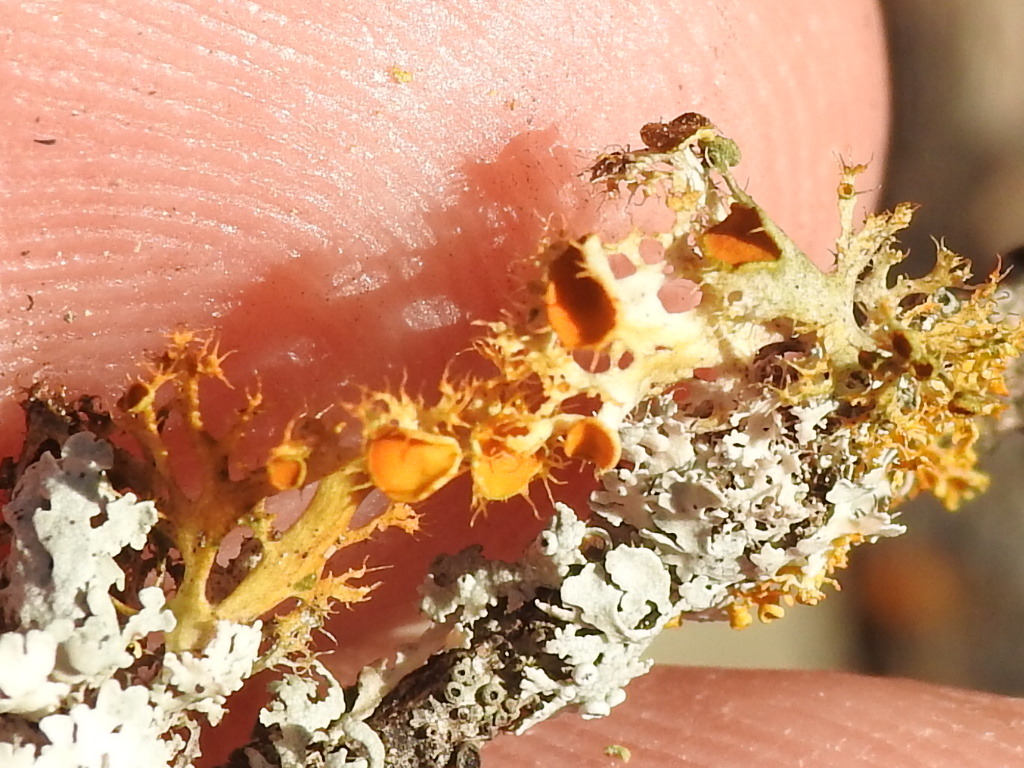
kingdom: Fungi
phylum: Ascomycota
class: Lecanoromycetes
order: Teloschistales
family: Teloschistaceae
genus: Niorma
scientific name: Niorma chrysophthalma
